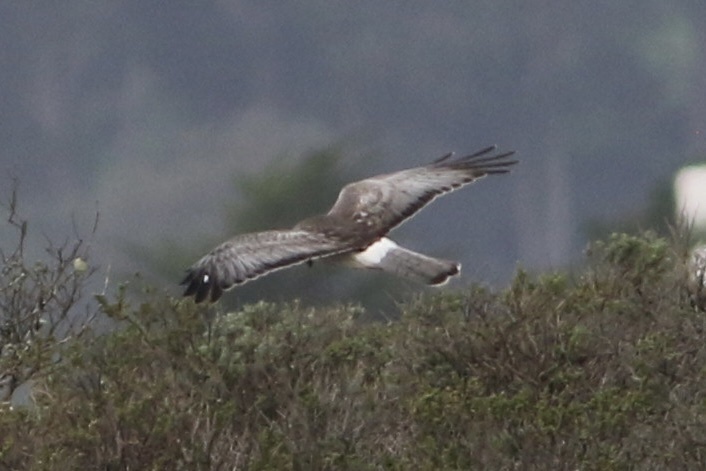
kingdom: Animalia
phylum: Chordata
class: Aves
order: Accipitriformes
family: Accipitridae
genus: Circus
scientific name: Circus cyaneus
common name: Hen harrier
